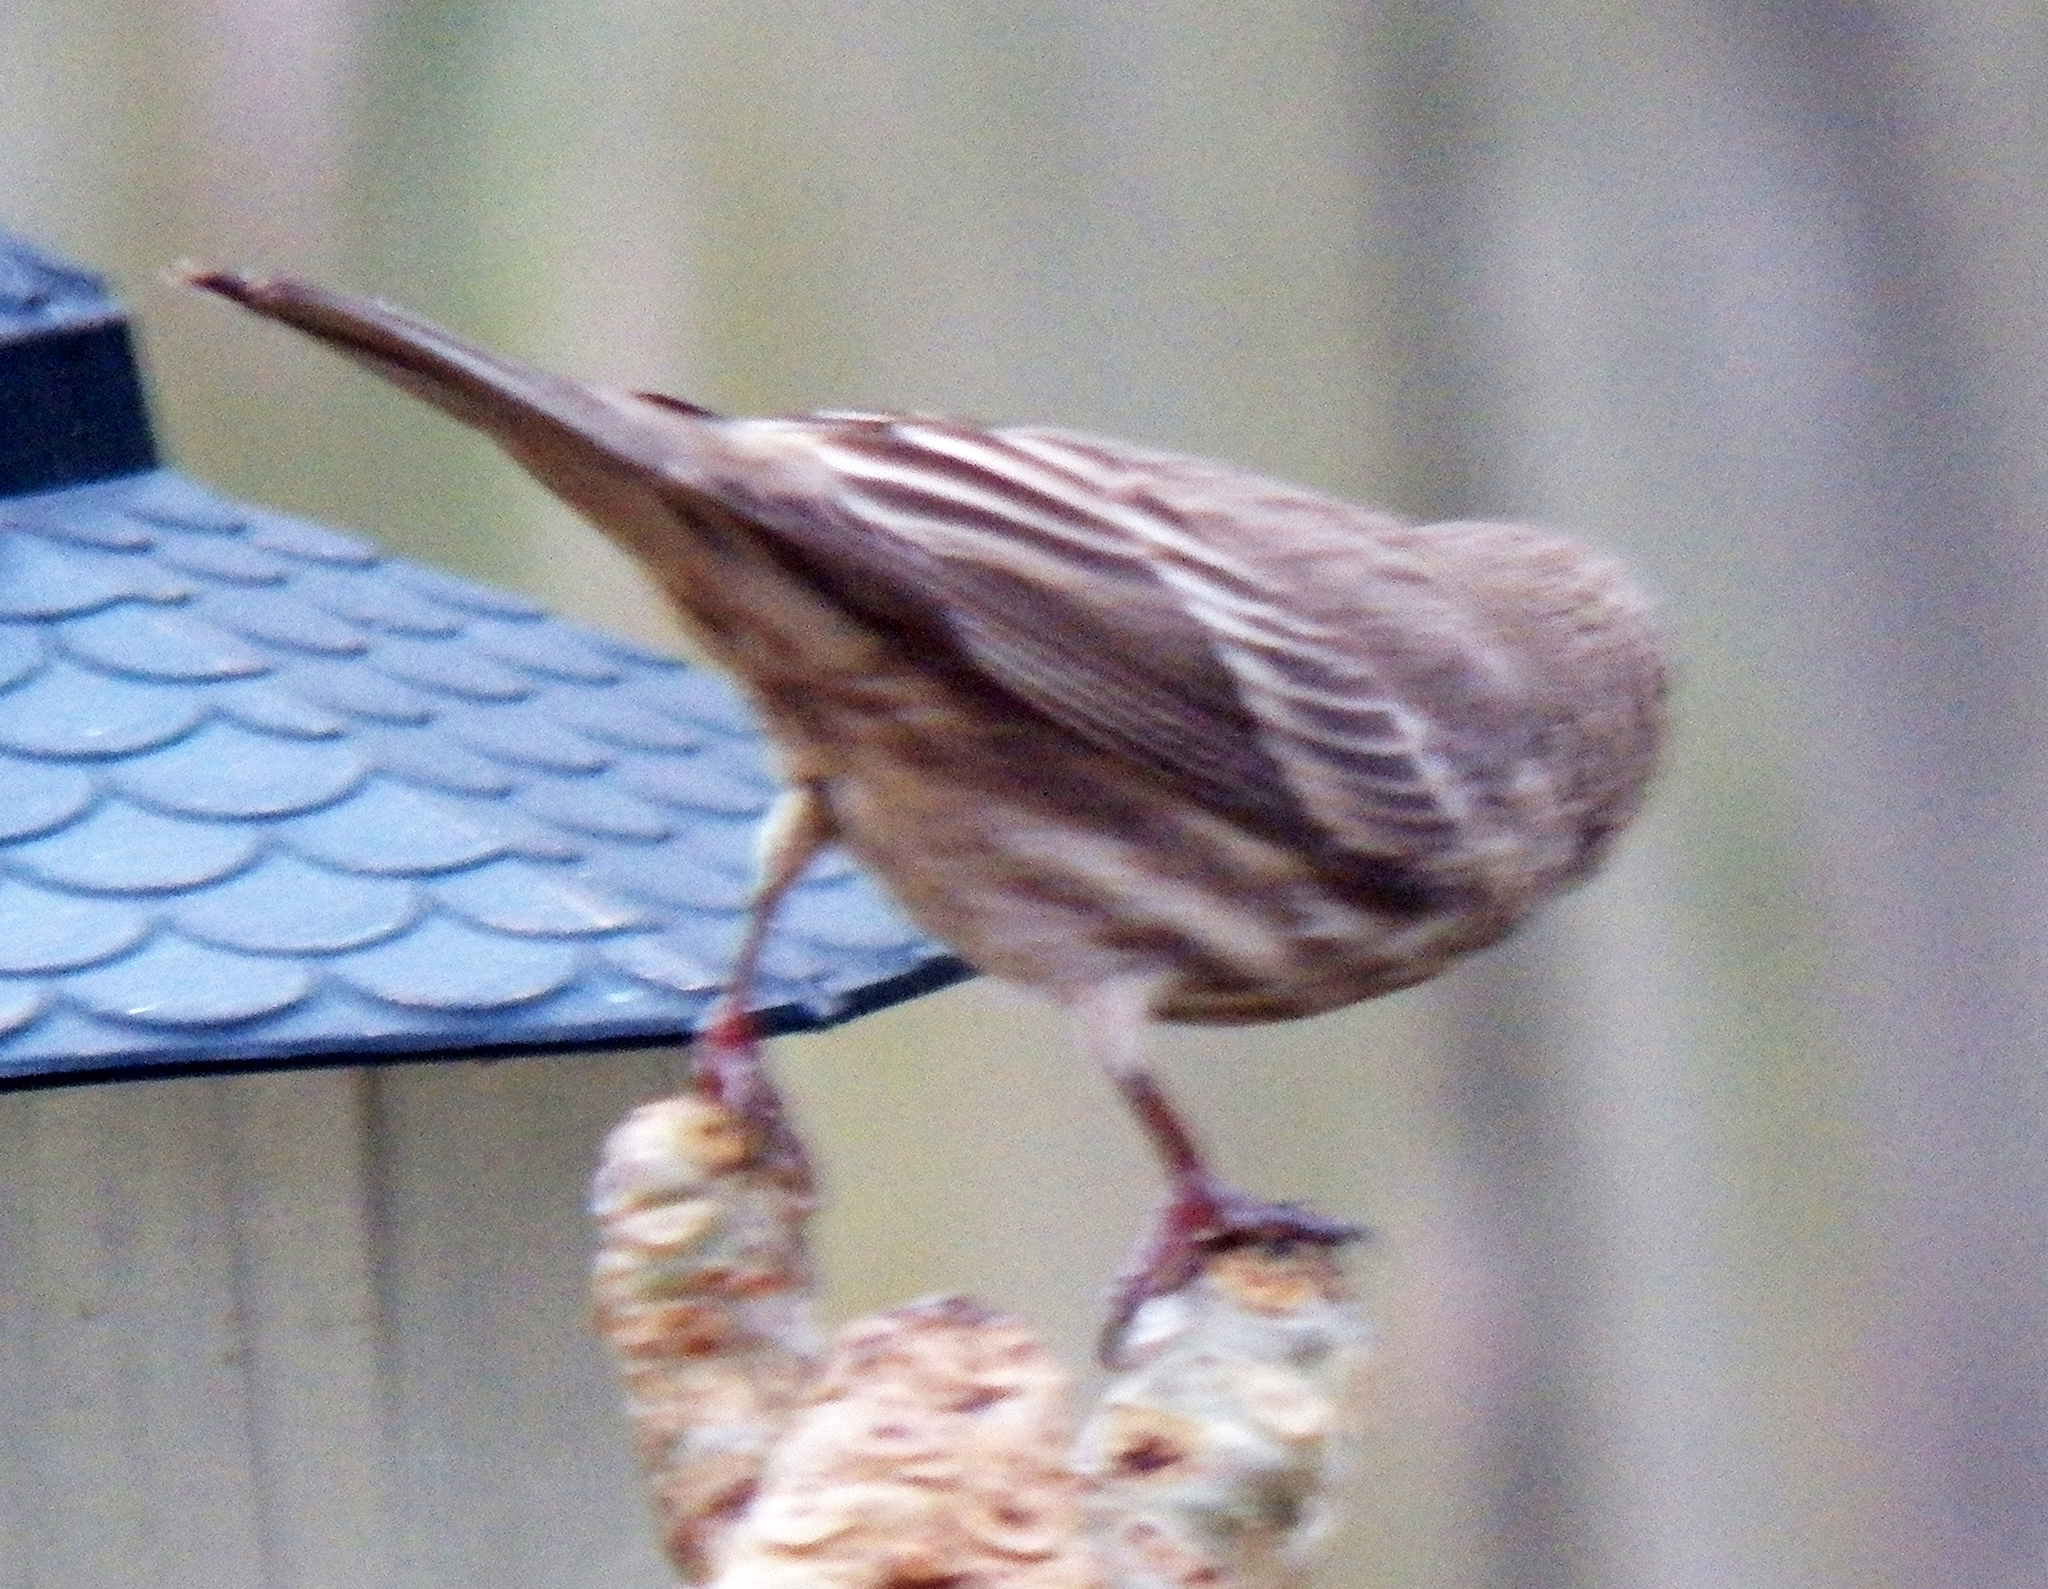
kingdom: Animalia
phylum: Chordata
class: Aves
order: Passeriformes
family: Fringillidae
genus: Haemorhous
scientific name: Haemorhous mexicanus
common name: House finch
